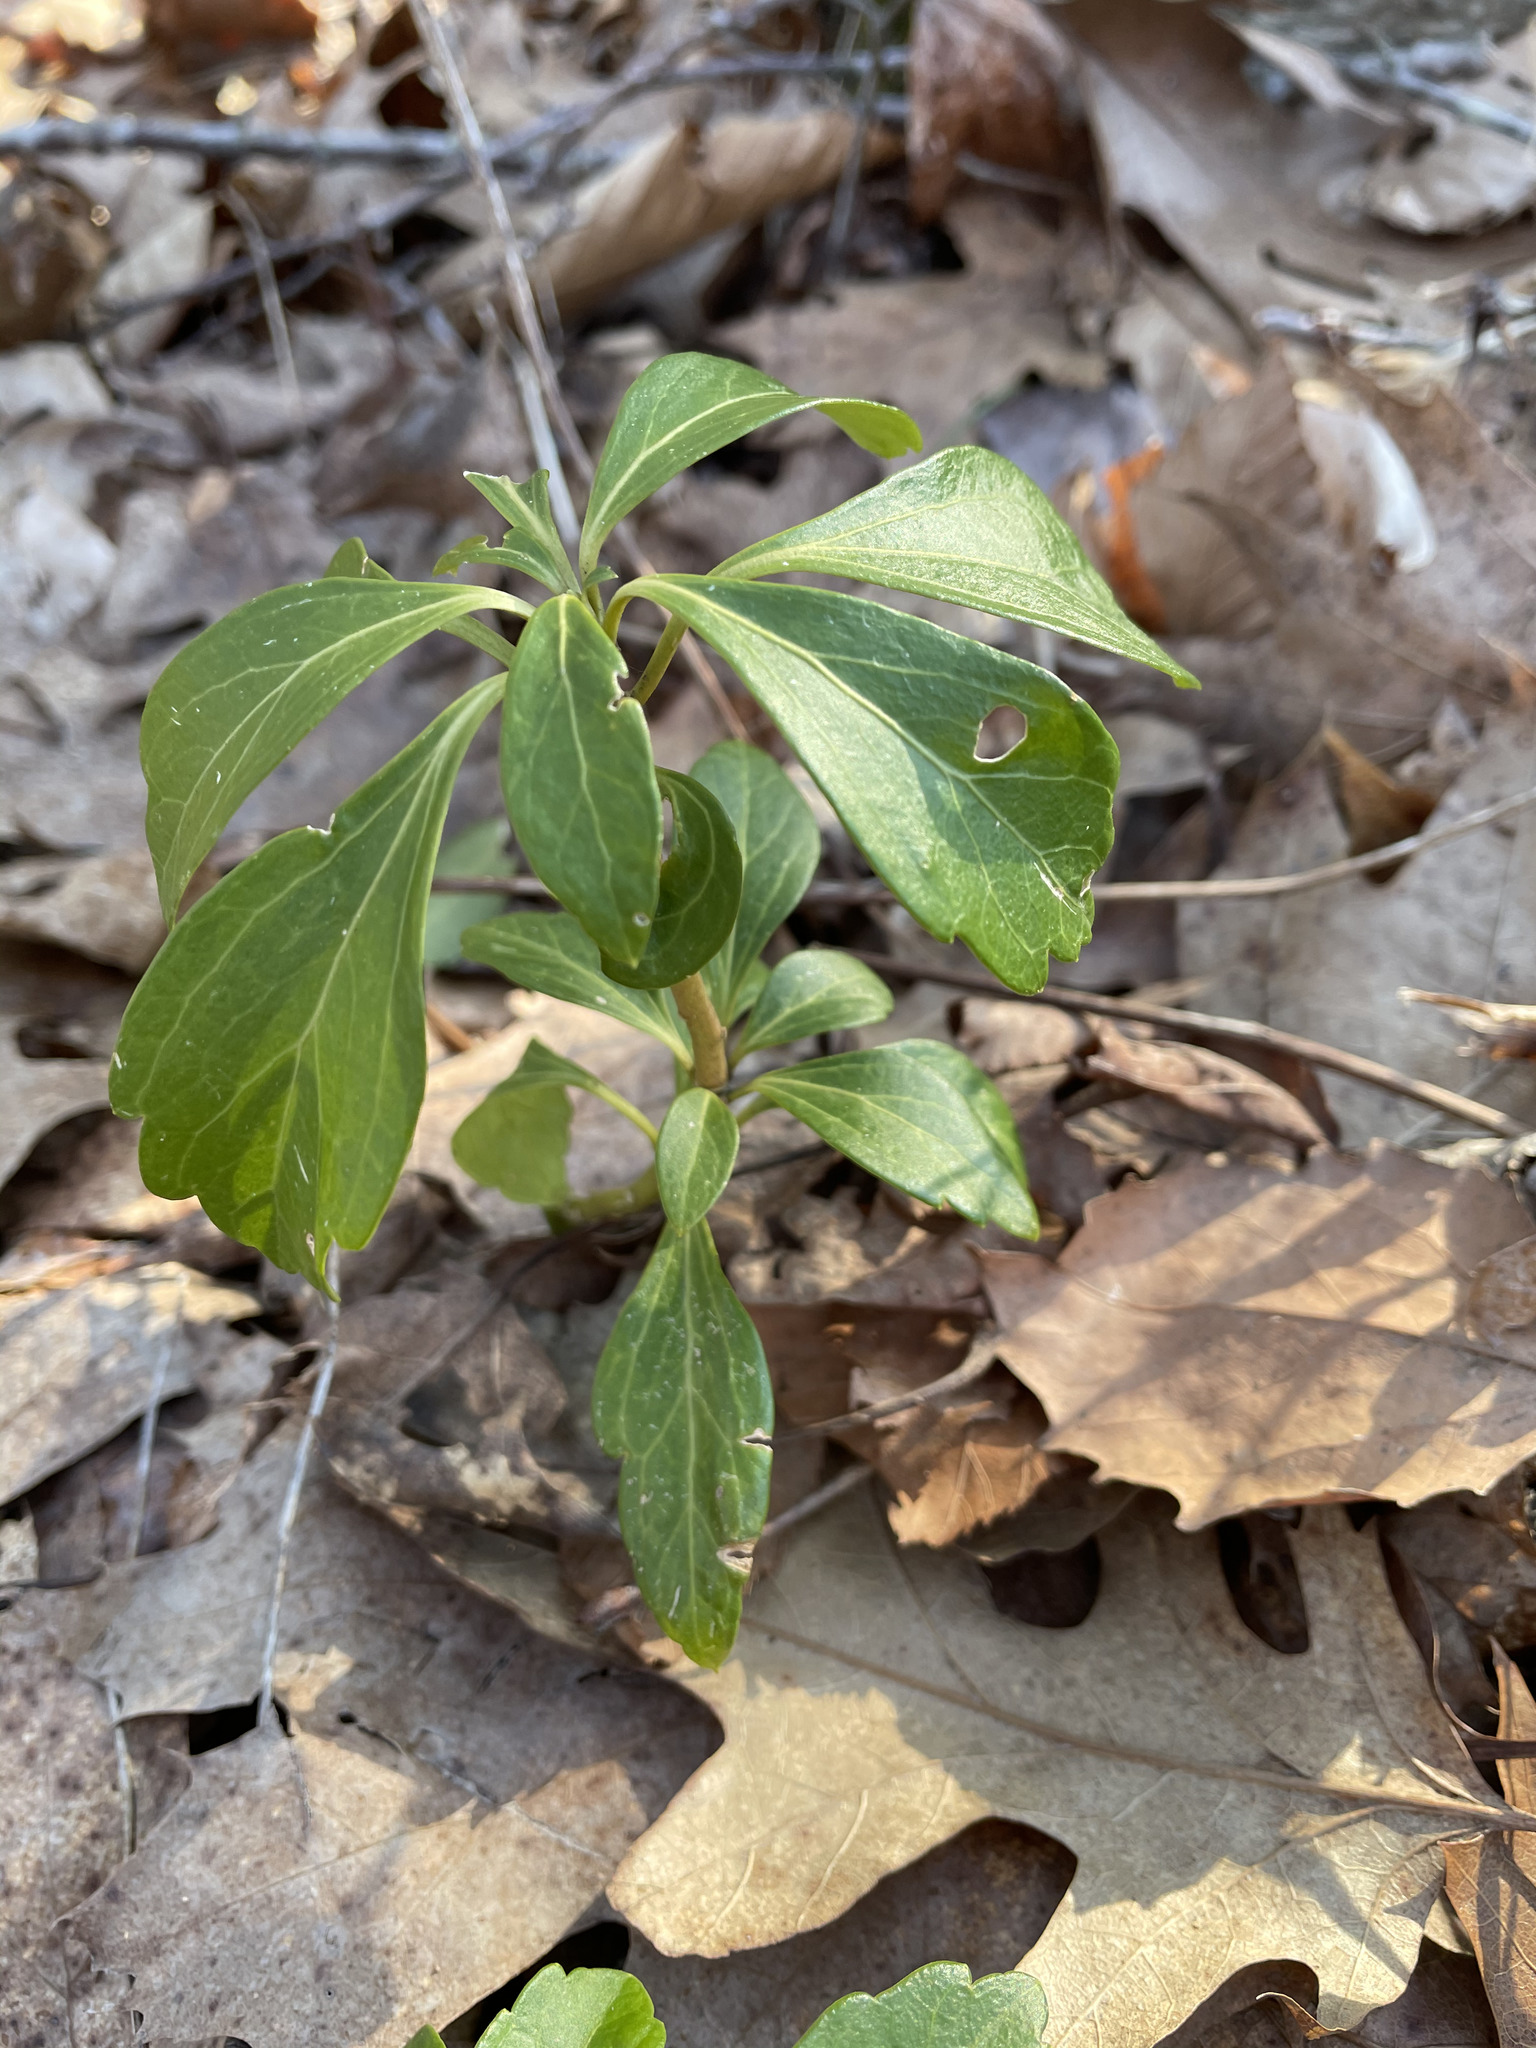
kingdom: Plantae
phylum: Tracheophyta
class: Magnoliopsida
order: Buxales
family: Buxaceae
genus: Pachysandra
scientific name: Pachysandra terminalis
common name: Japanese pachysandra
